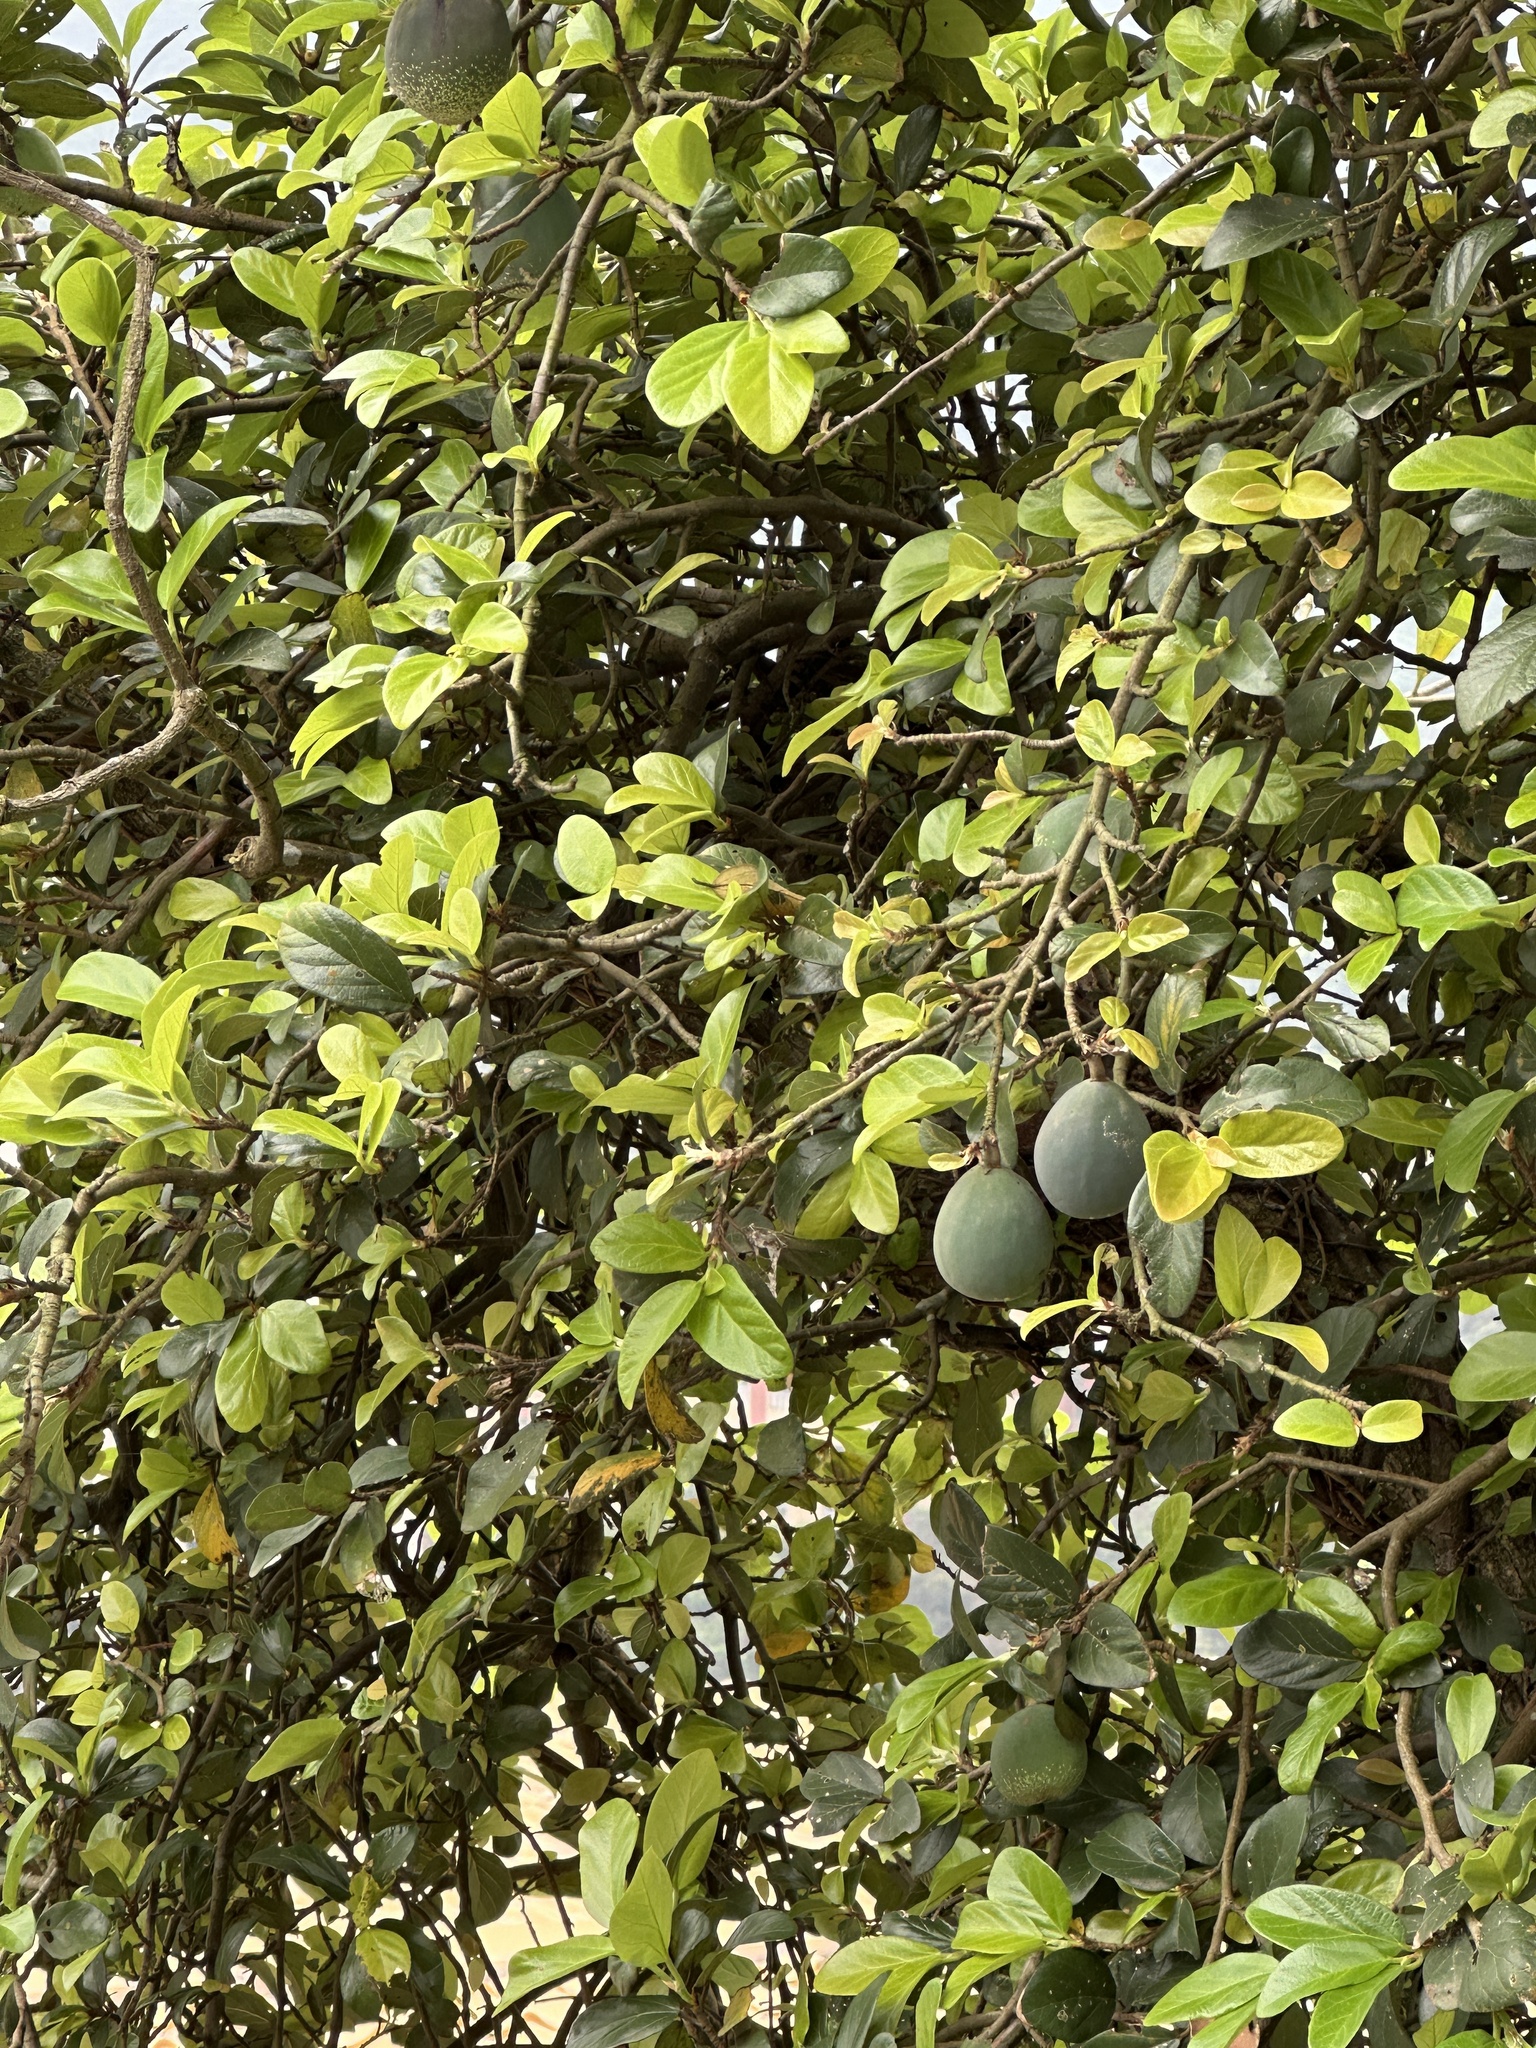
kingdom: Plantae
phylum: Tracheophyta
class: Magnoliopsida
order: Rosales
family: Moraceae
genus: Ficus
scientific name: Ficus pumila
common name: Climbingfig
